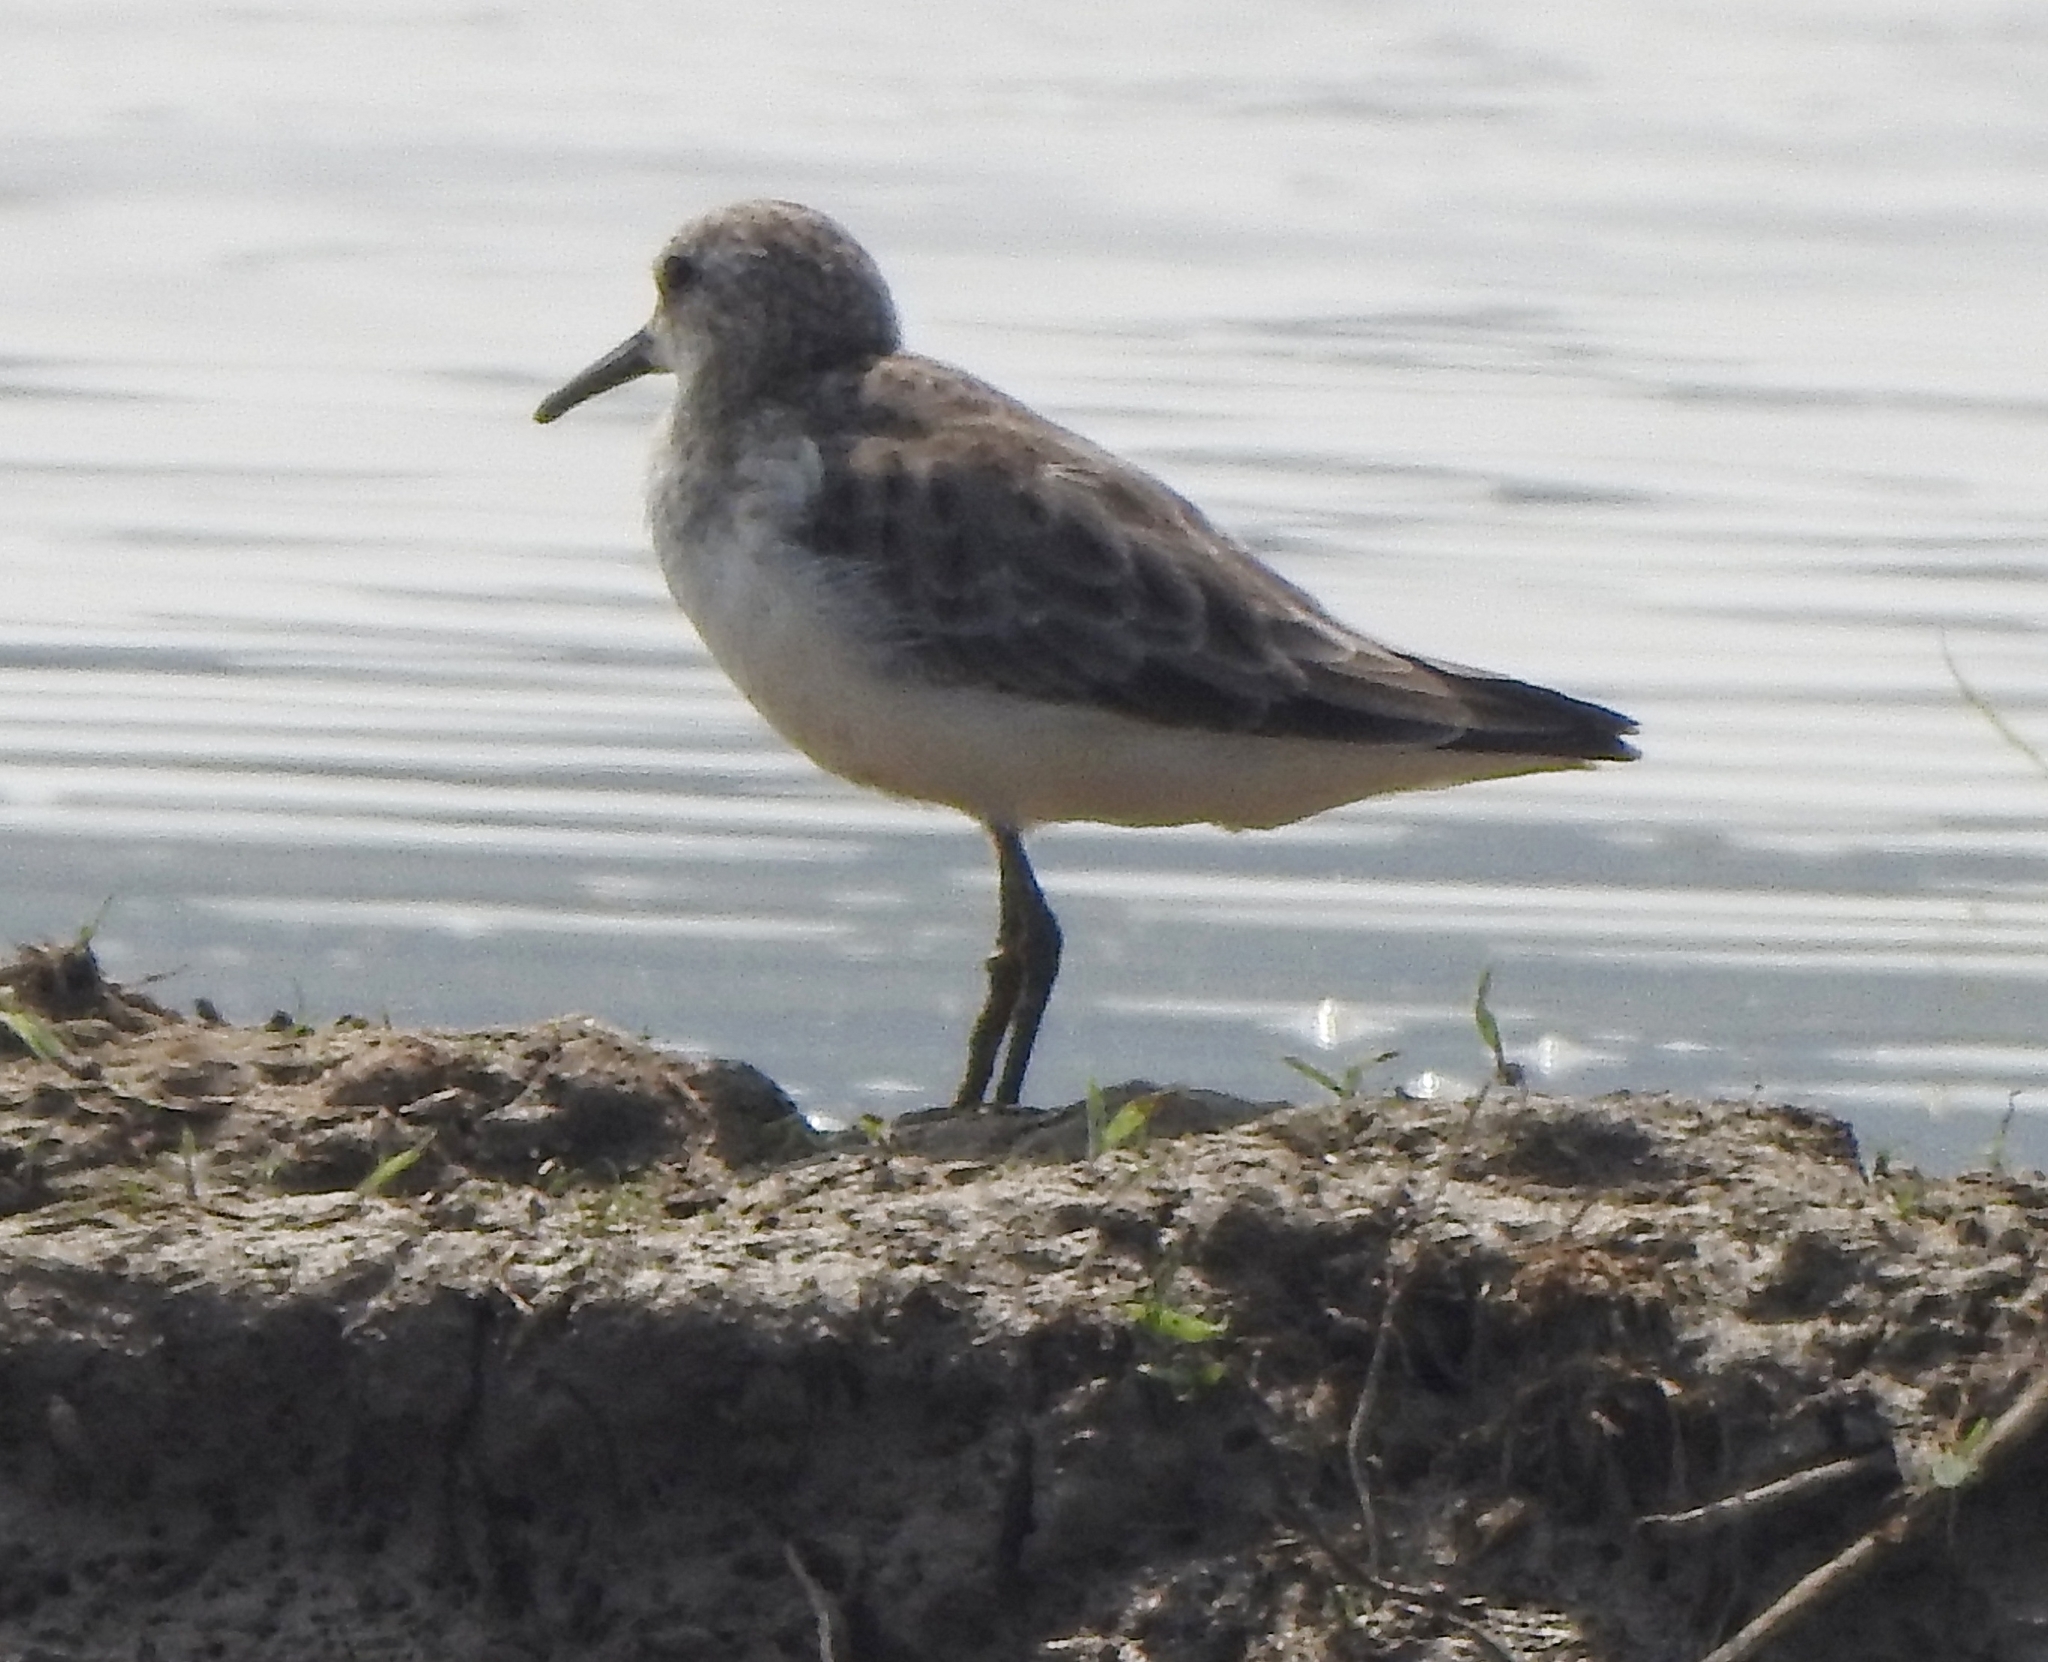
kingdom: Animalia
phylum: Chordata
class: Aves
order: Charadriiformes
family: Scolopacidae
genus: Calidris
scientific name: Calidris minuta
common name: Little stint
